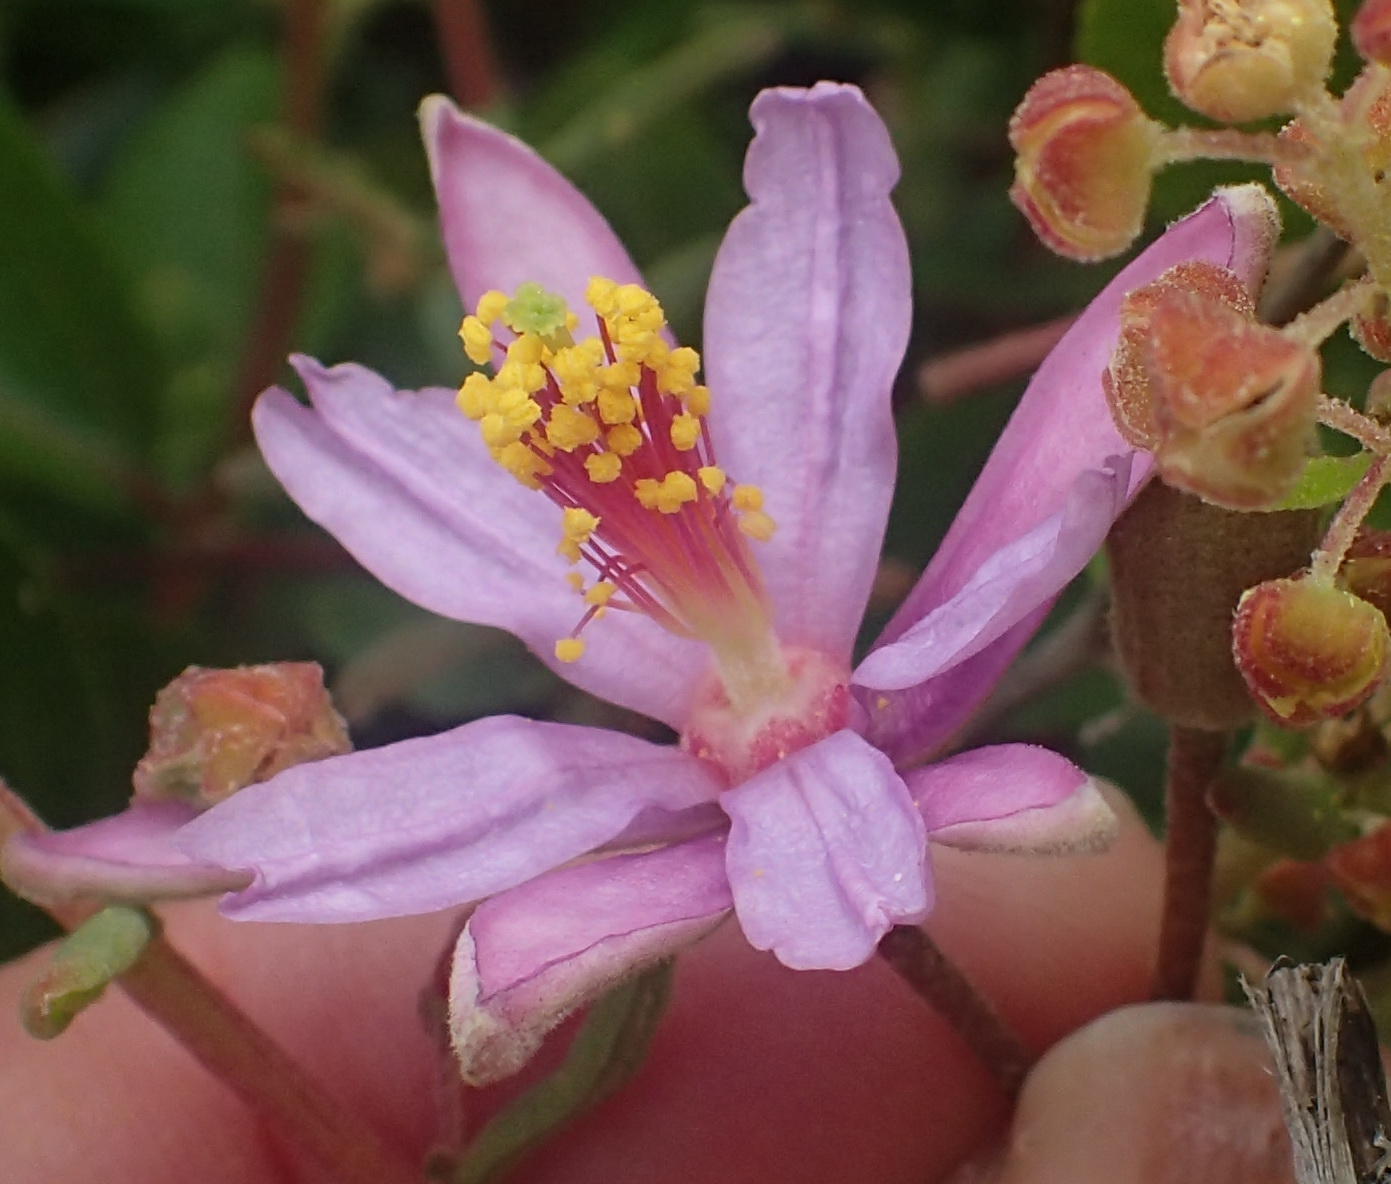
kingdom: Plantae
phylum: Tracheophyta
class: Magnoliopsida
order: Malvales
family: Malvaceae
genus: Grewia
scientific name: Grewia occidentalis
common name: Crossberry
